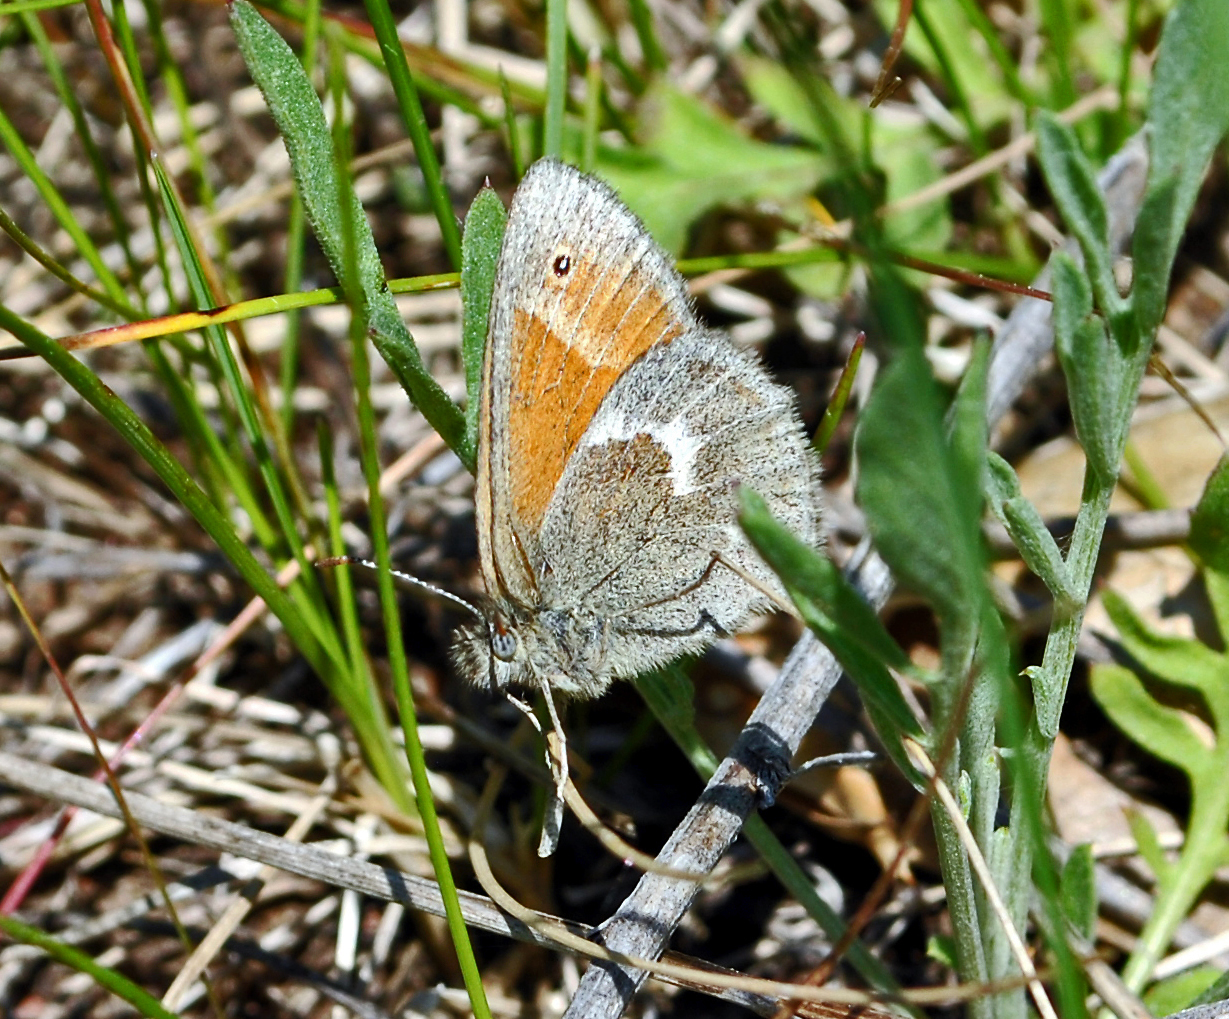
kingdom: Animalia
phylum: Arthropoda
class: Insecta
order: Lepidoptera
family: Nymphalidae
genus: Coenonympha
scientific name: Coenonympha california
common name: Common ringlet
